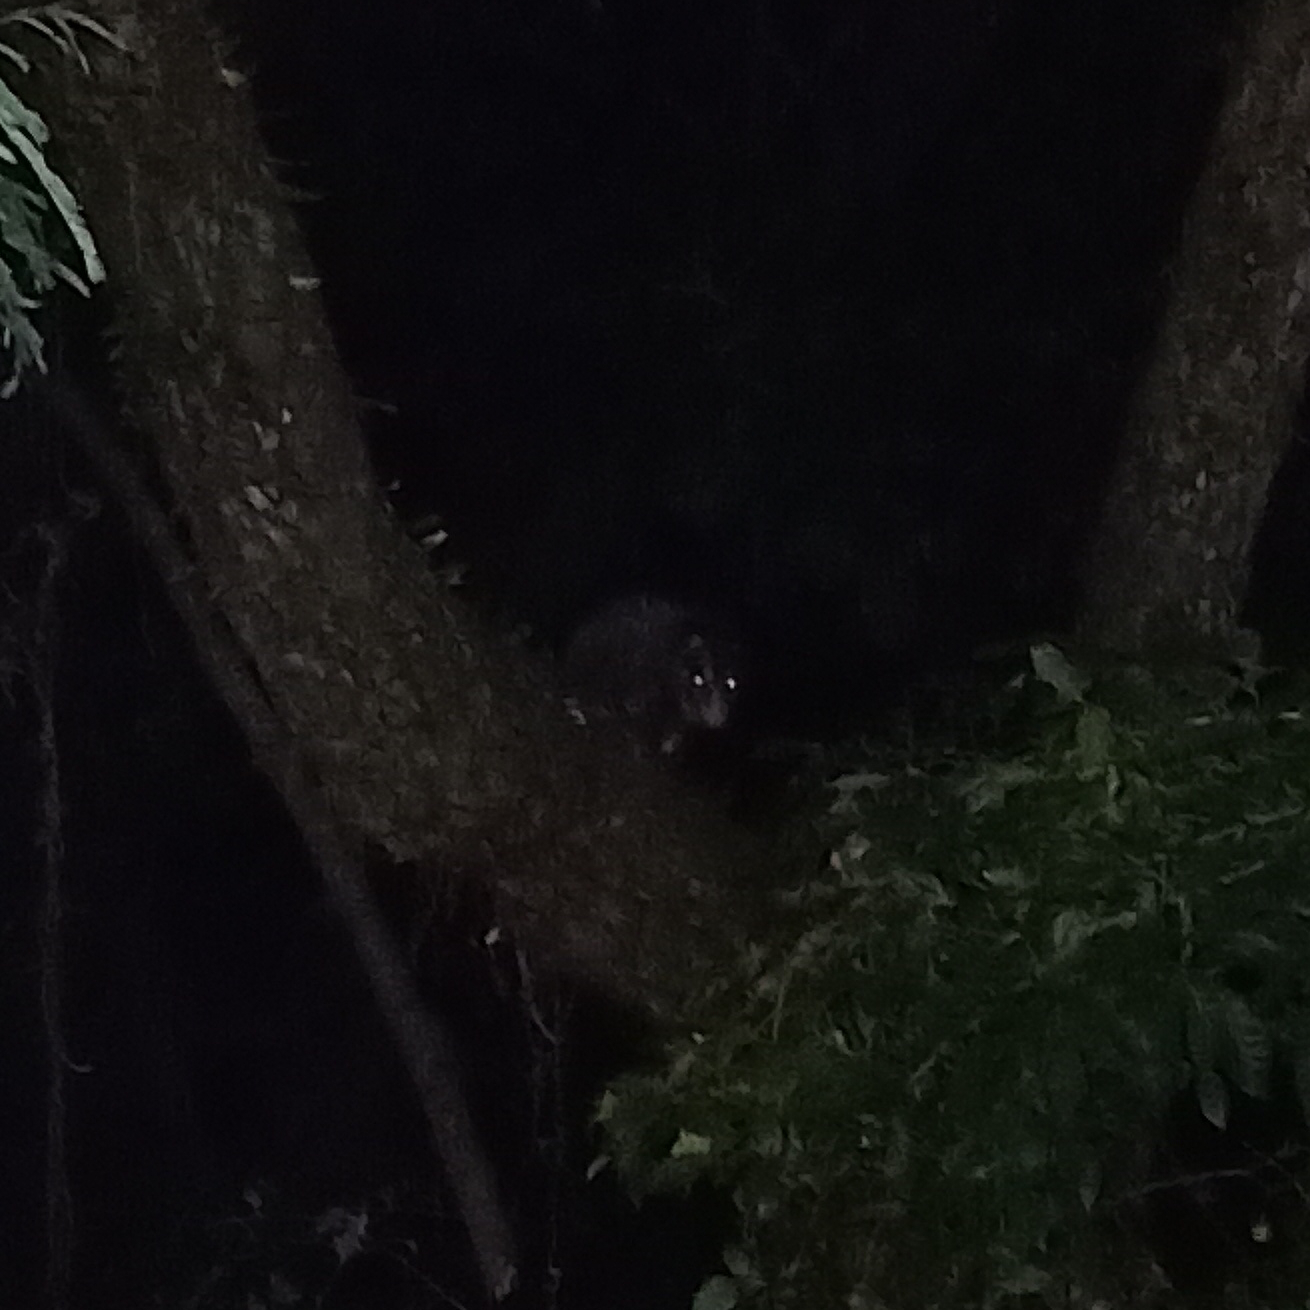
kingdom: Animalia
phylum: Chordata
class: Mammalia
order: Didelphimorphia
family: Didelphidae
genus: Didelphis
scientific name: Didelphis aurita
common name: Big-eared opossum
